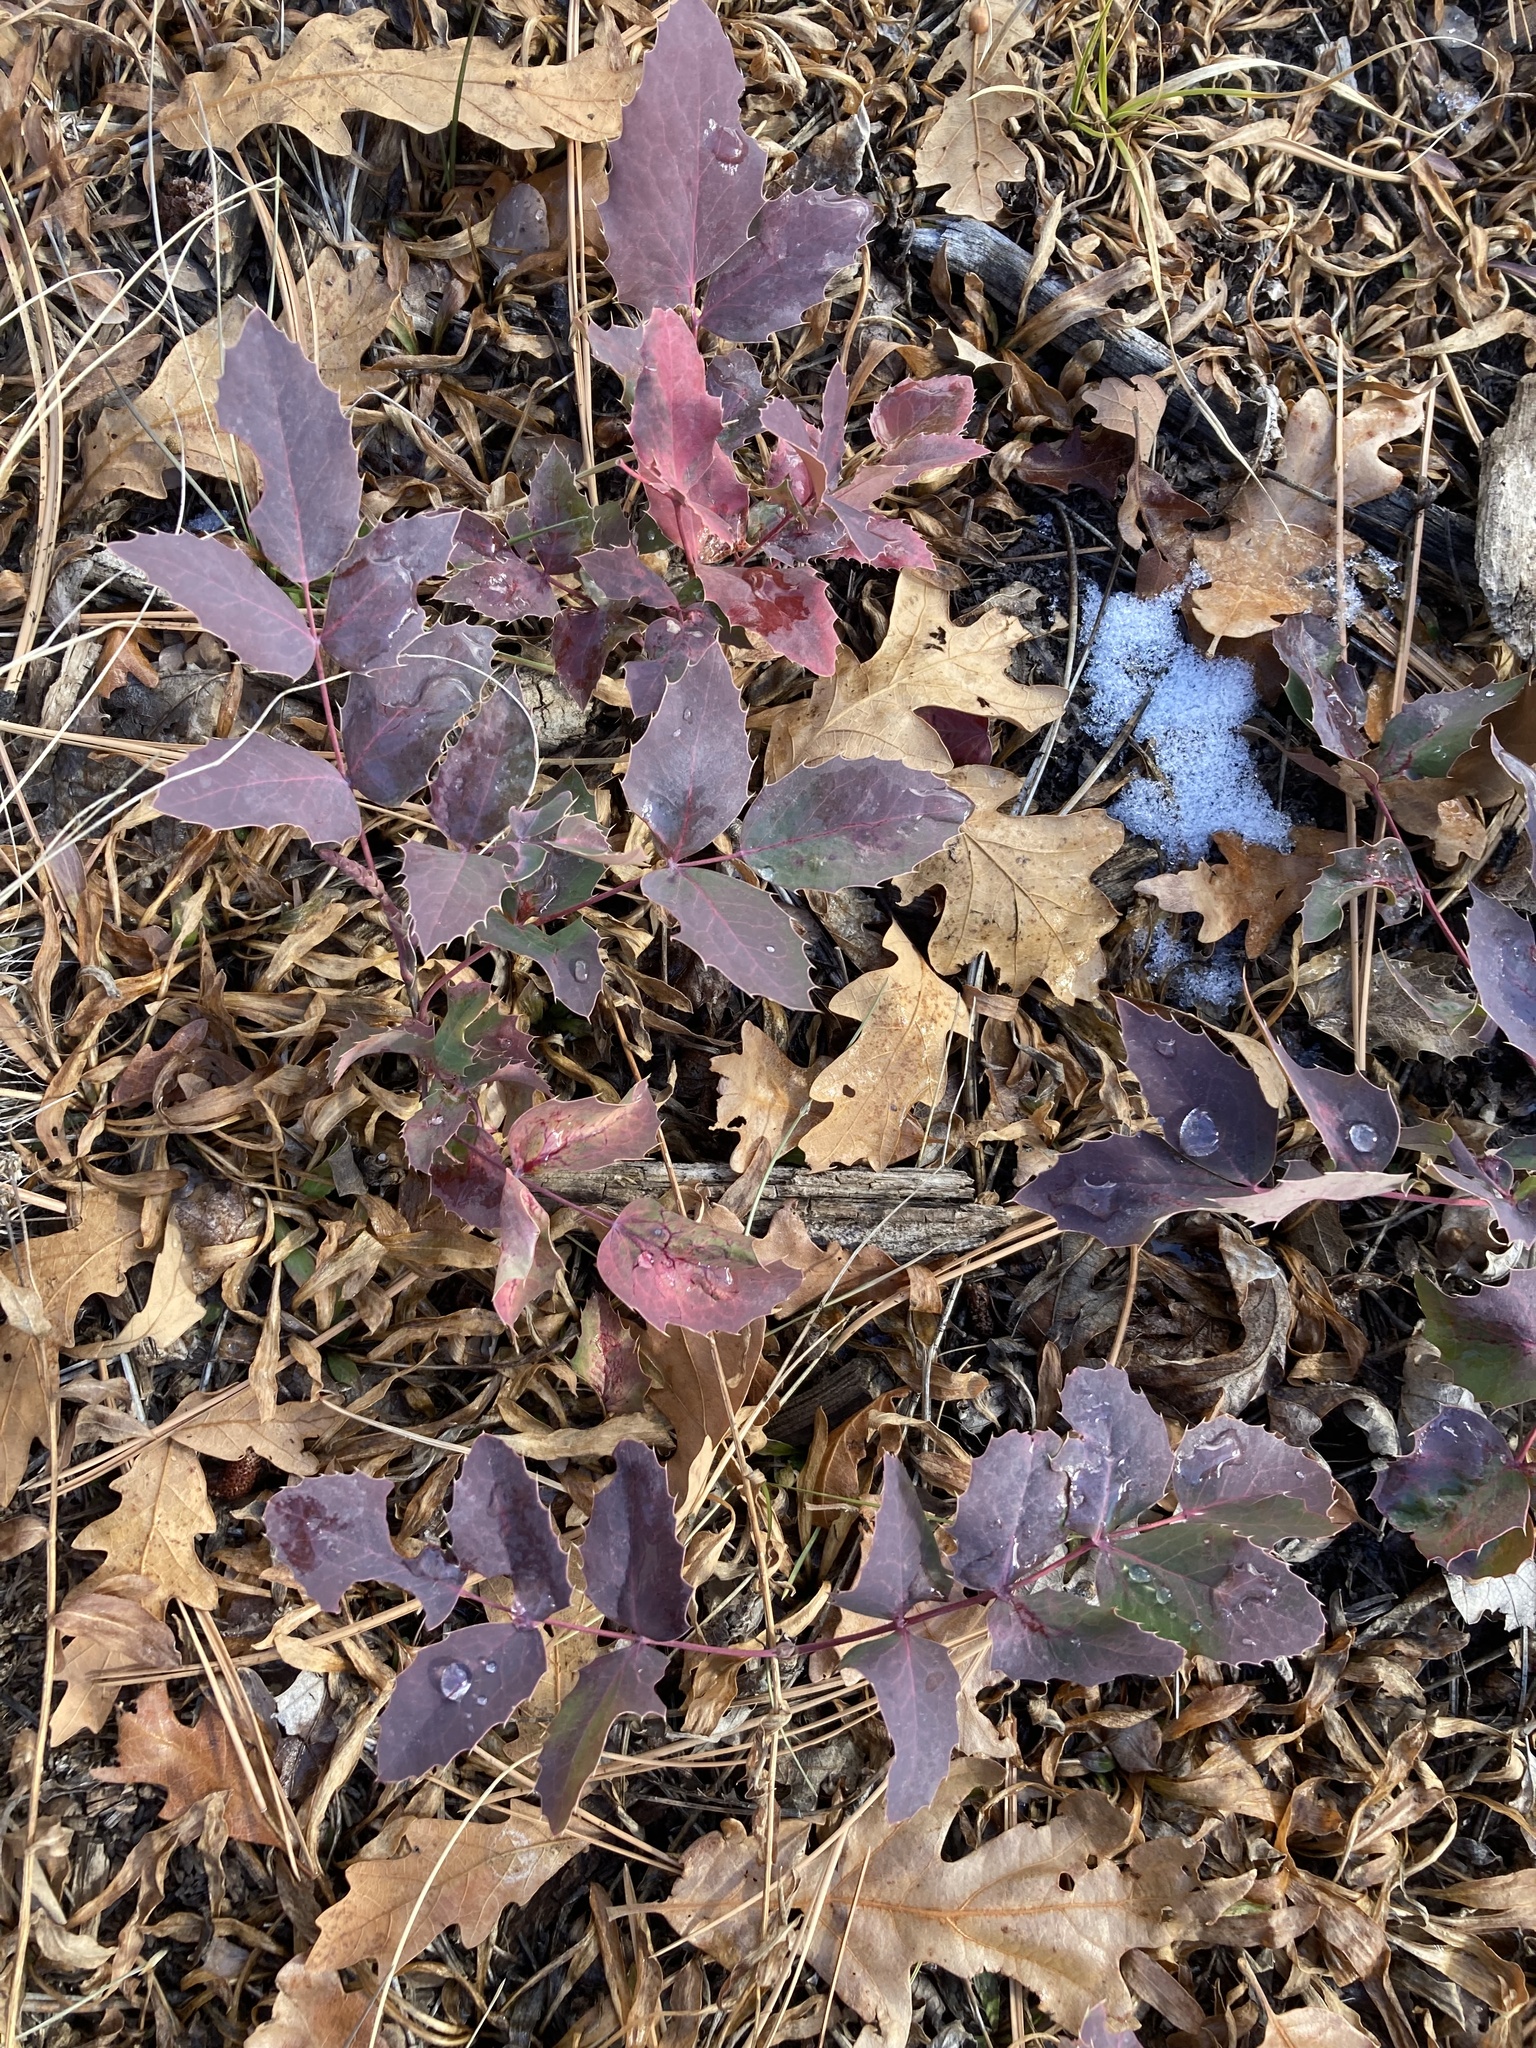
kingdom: Plantae
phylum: Tracheophyta
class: Magnoliopsida
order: Ranunculales
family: Berberidaceae
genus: Mahonia
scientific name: Mahonia repens
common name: Creeping oregon-grape
